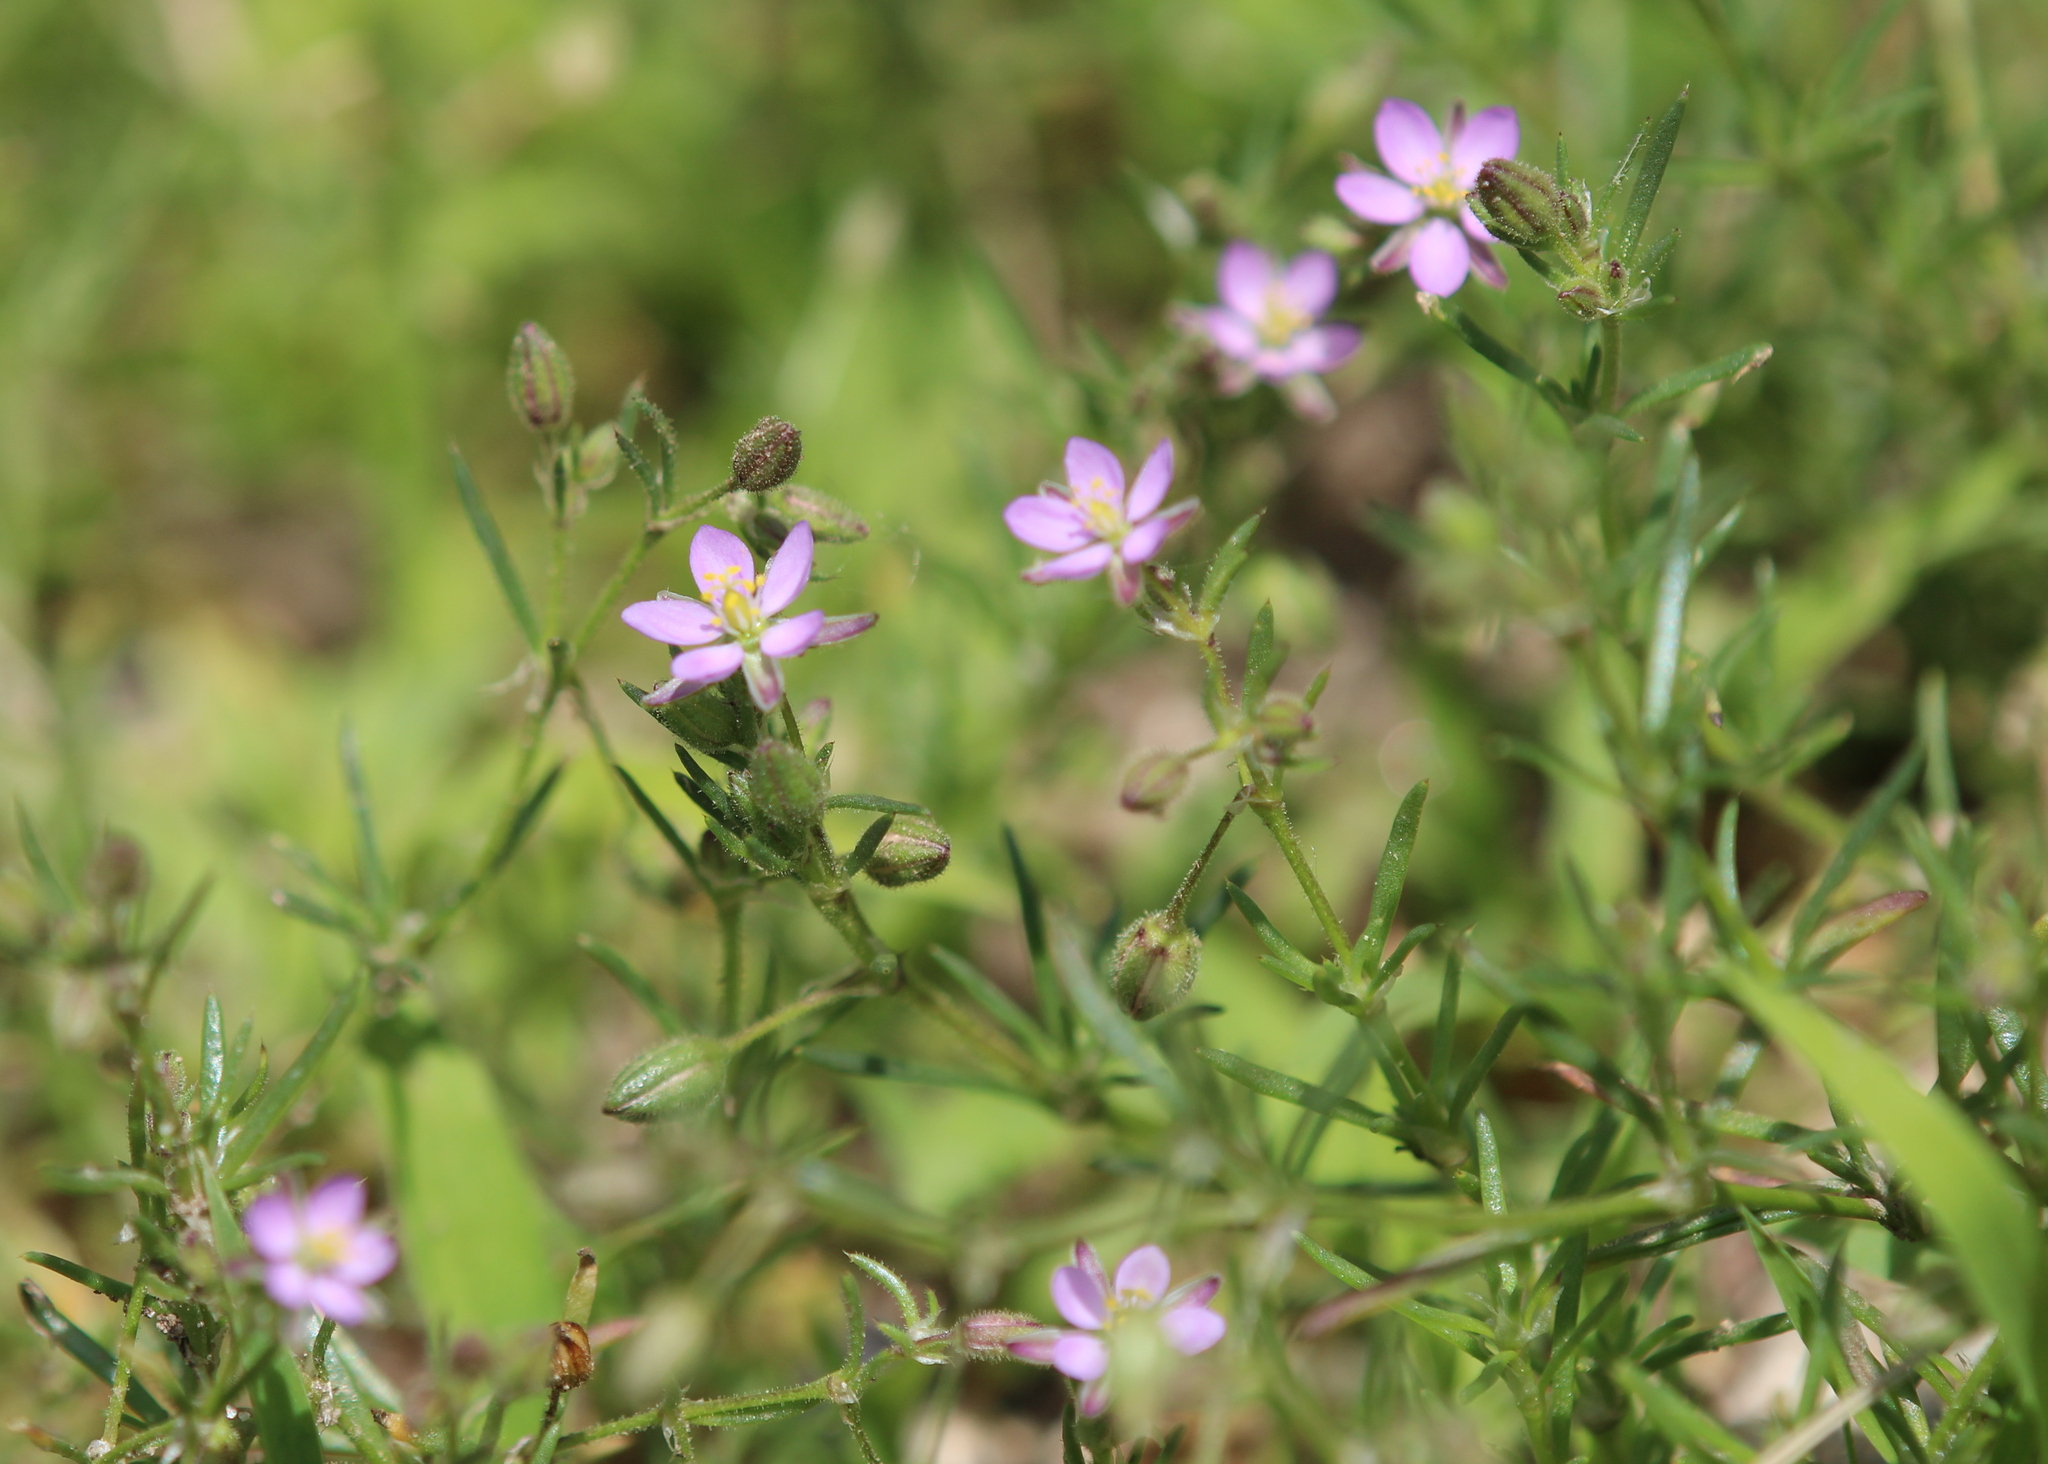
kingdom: Plantae
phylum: Tracheophyta
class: Magnoliopsida
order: Caryophyllales
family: Caryophyllaceae
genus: Spergularia
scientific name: Spergularia rubra
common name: Red sand-spurrey
